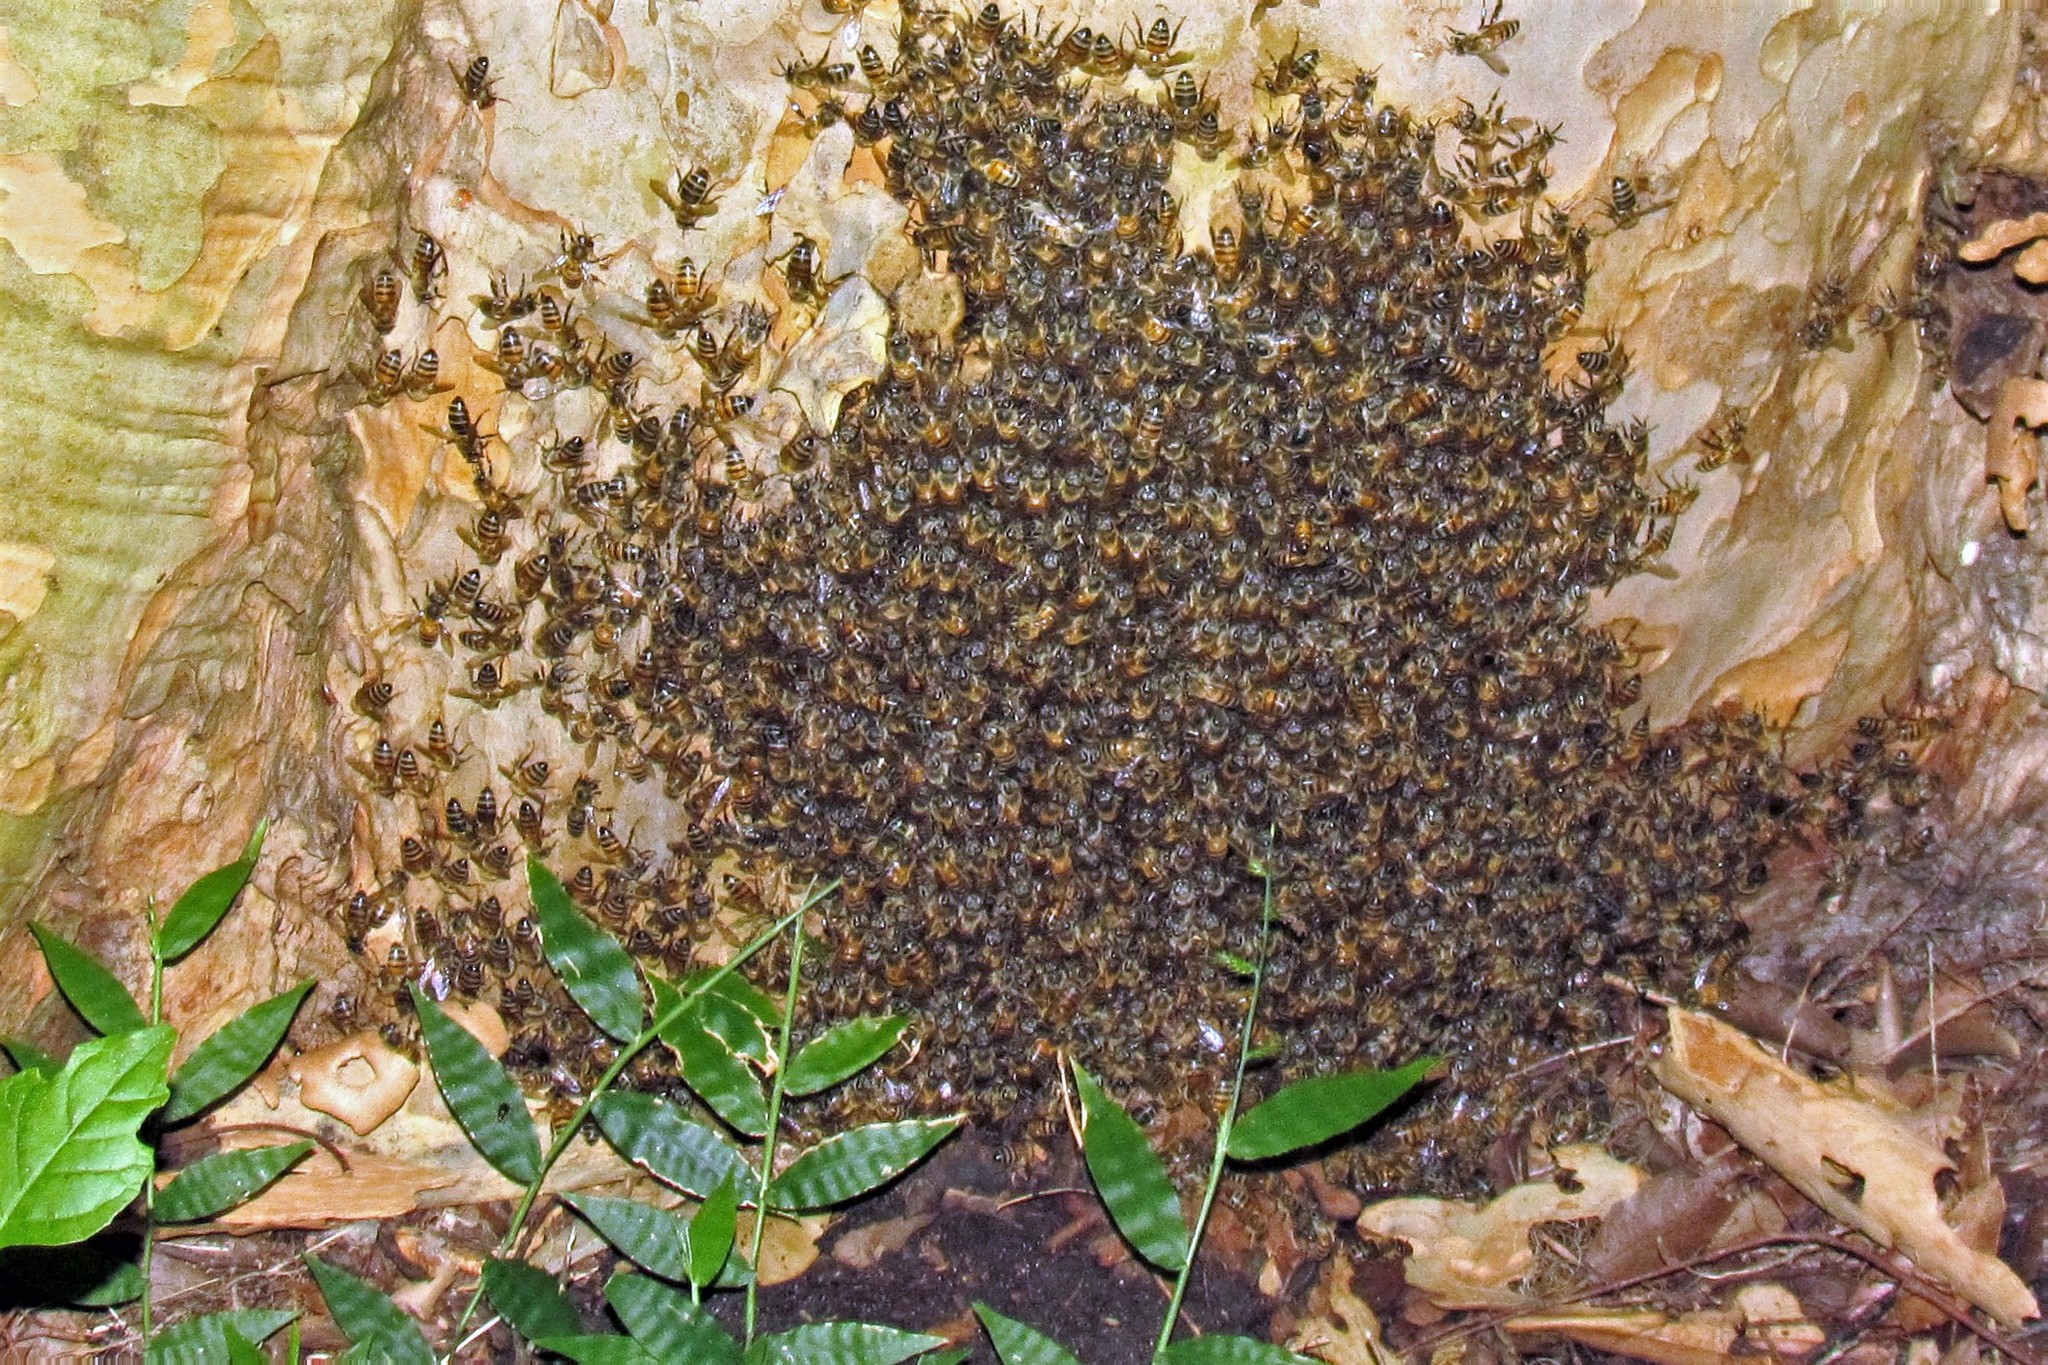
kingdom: Animalia
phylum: Arthropoda
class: Insecta
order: Hymenoptera
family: Apidae
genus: Apis
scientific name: Apis mellifera
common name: Honey bee
